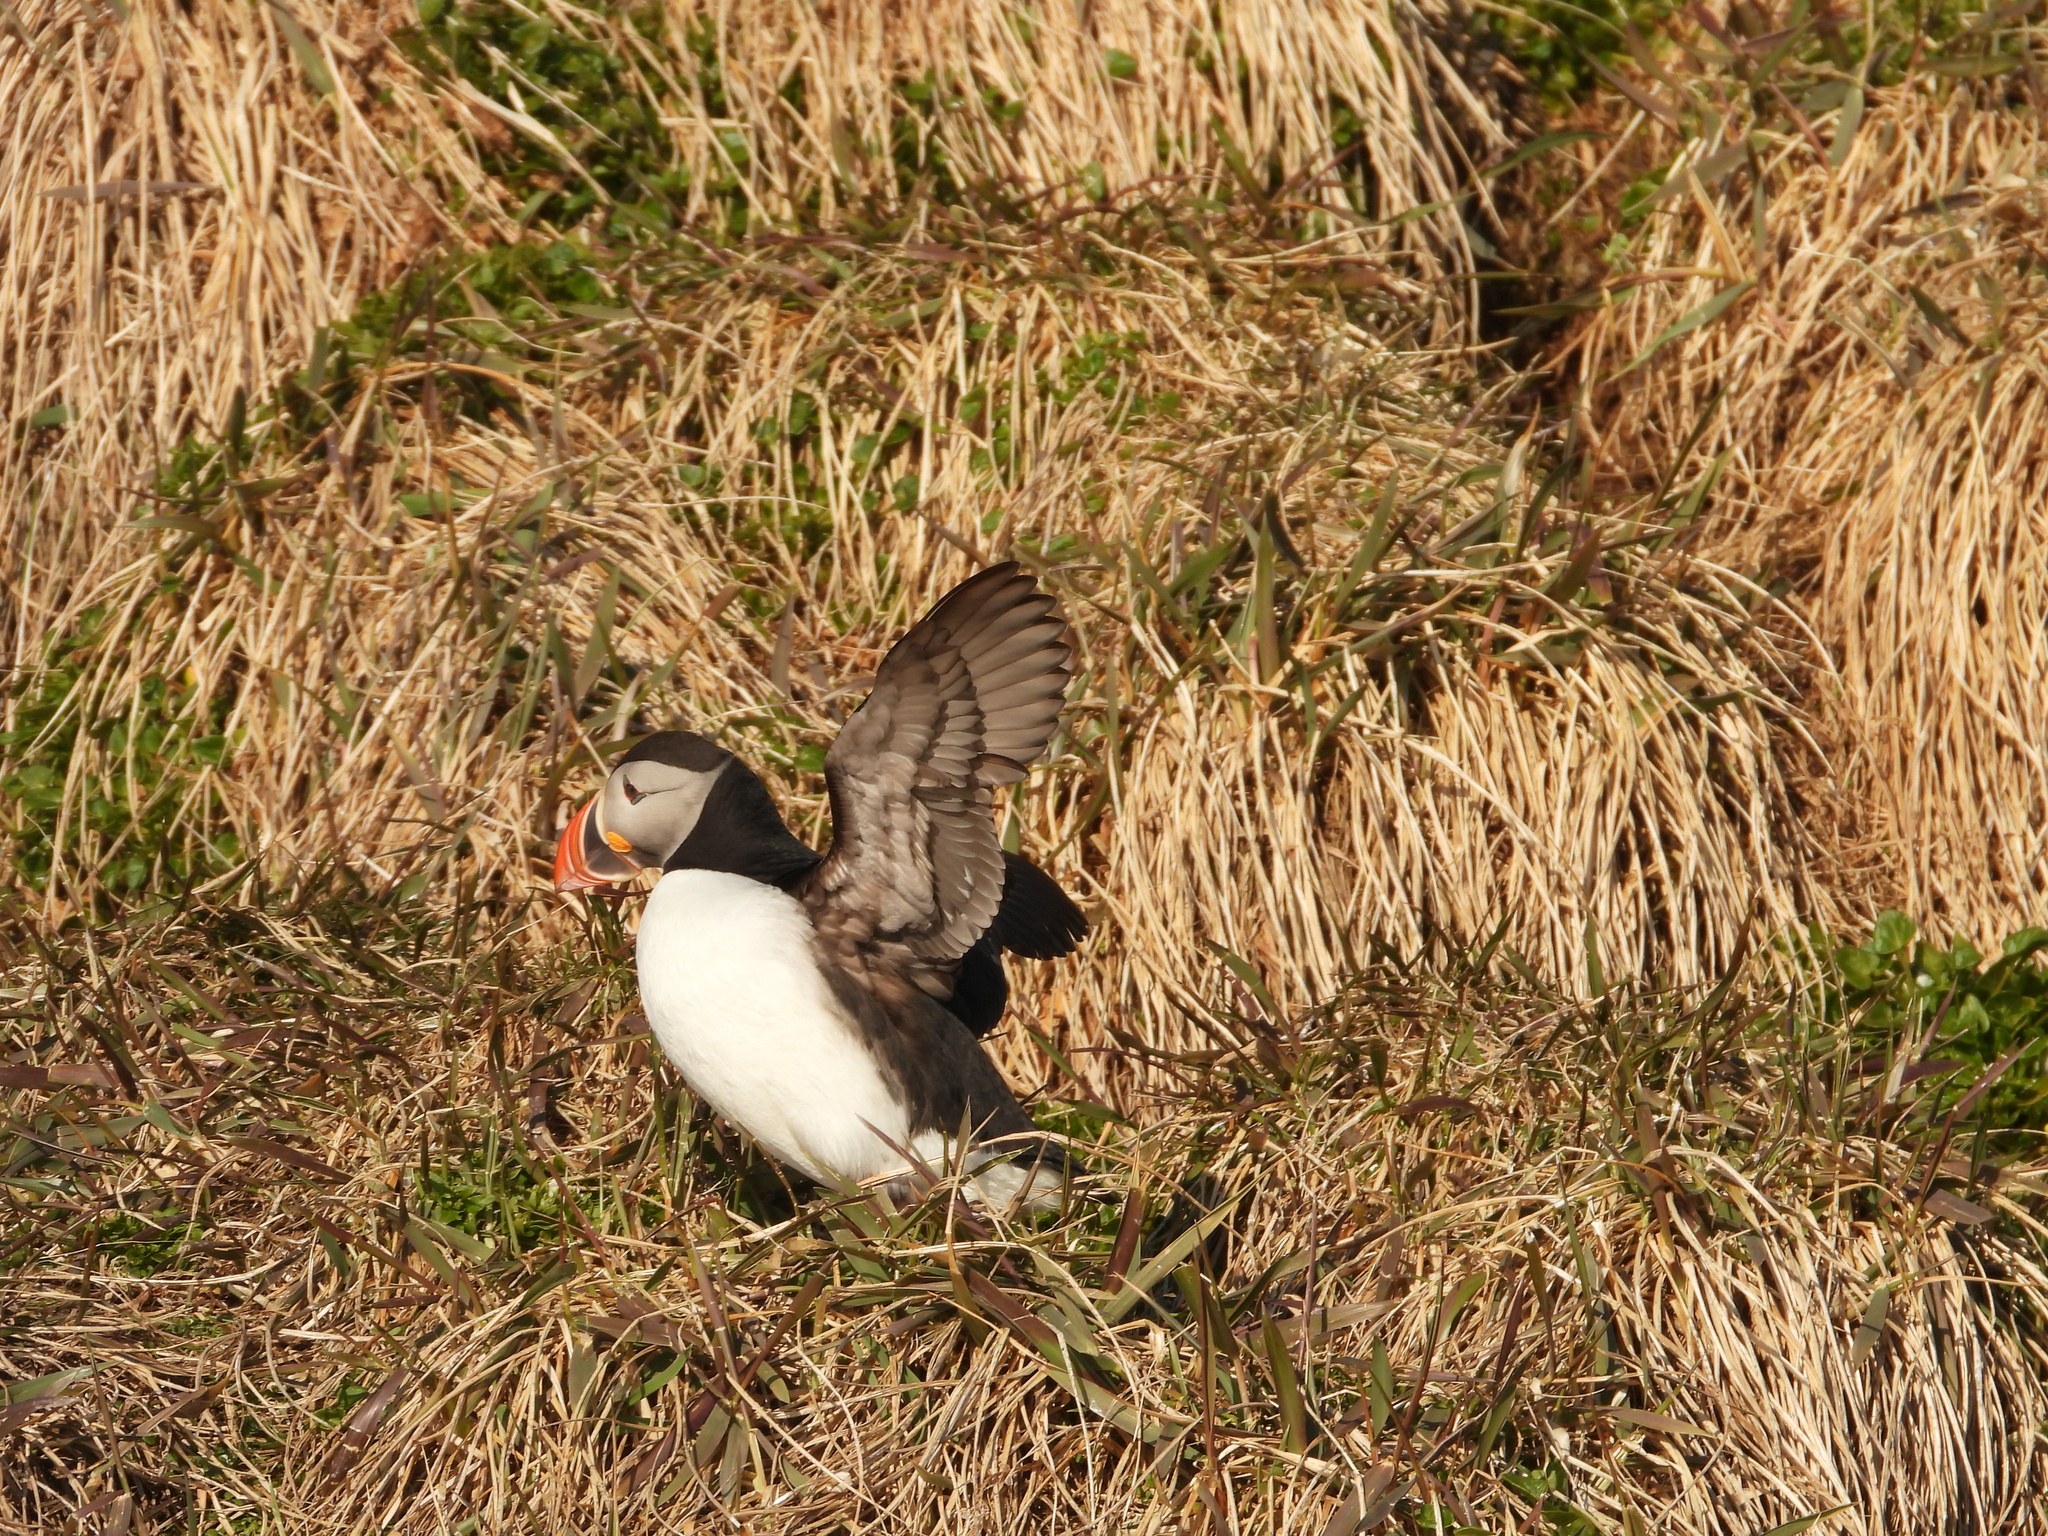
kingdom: Animalia
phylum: Chordata
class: Aves
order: Charadriiformes
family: Alcidae
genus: Fratercula
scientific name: Fratercula arctica
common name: Atlantic puffin
